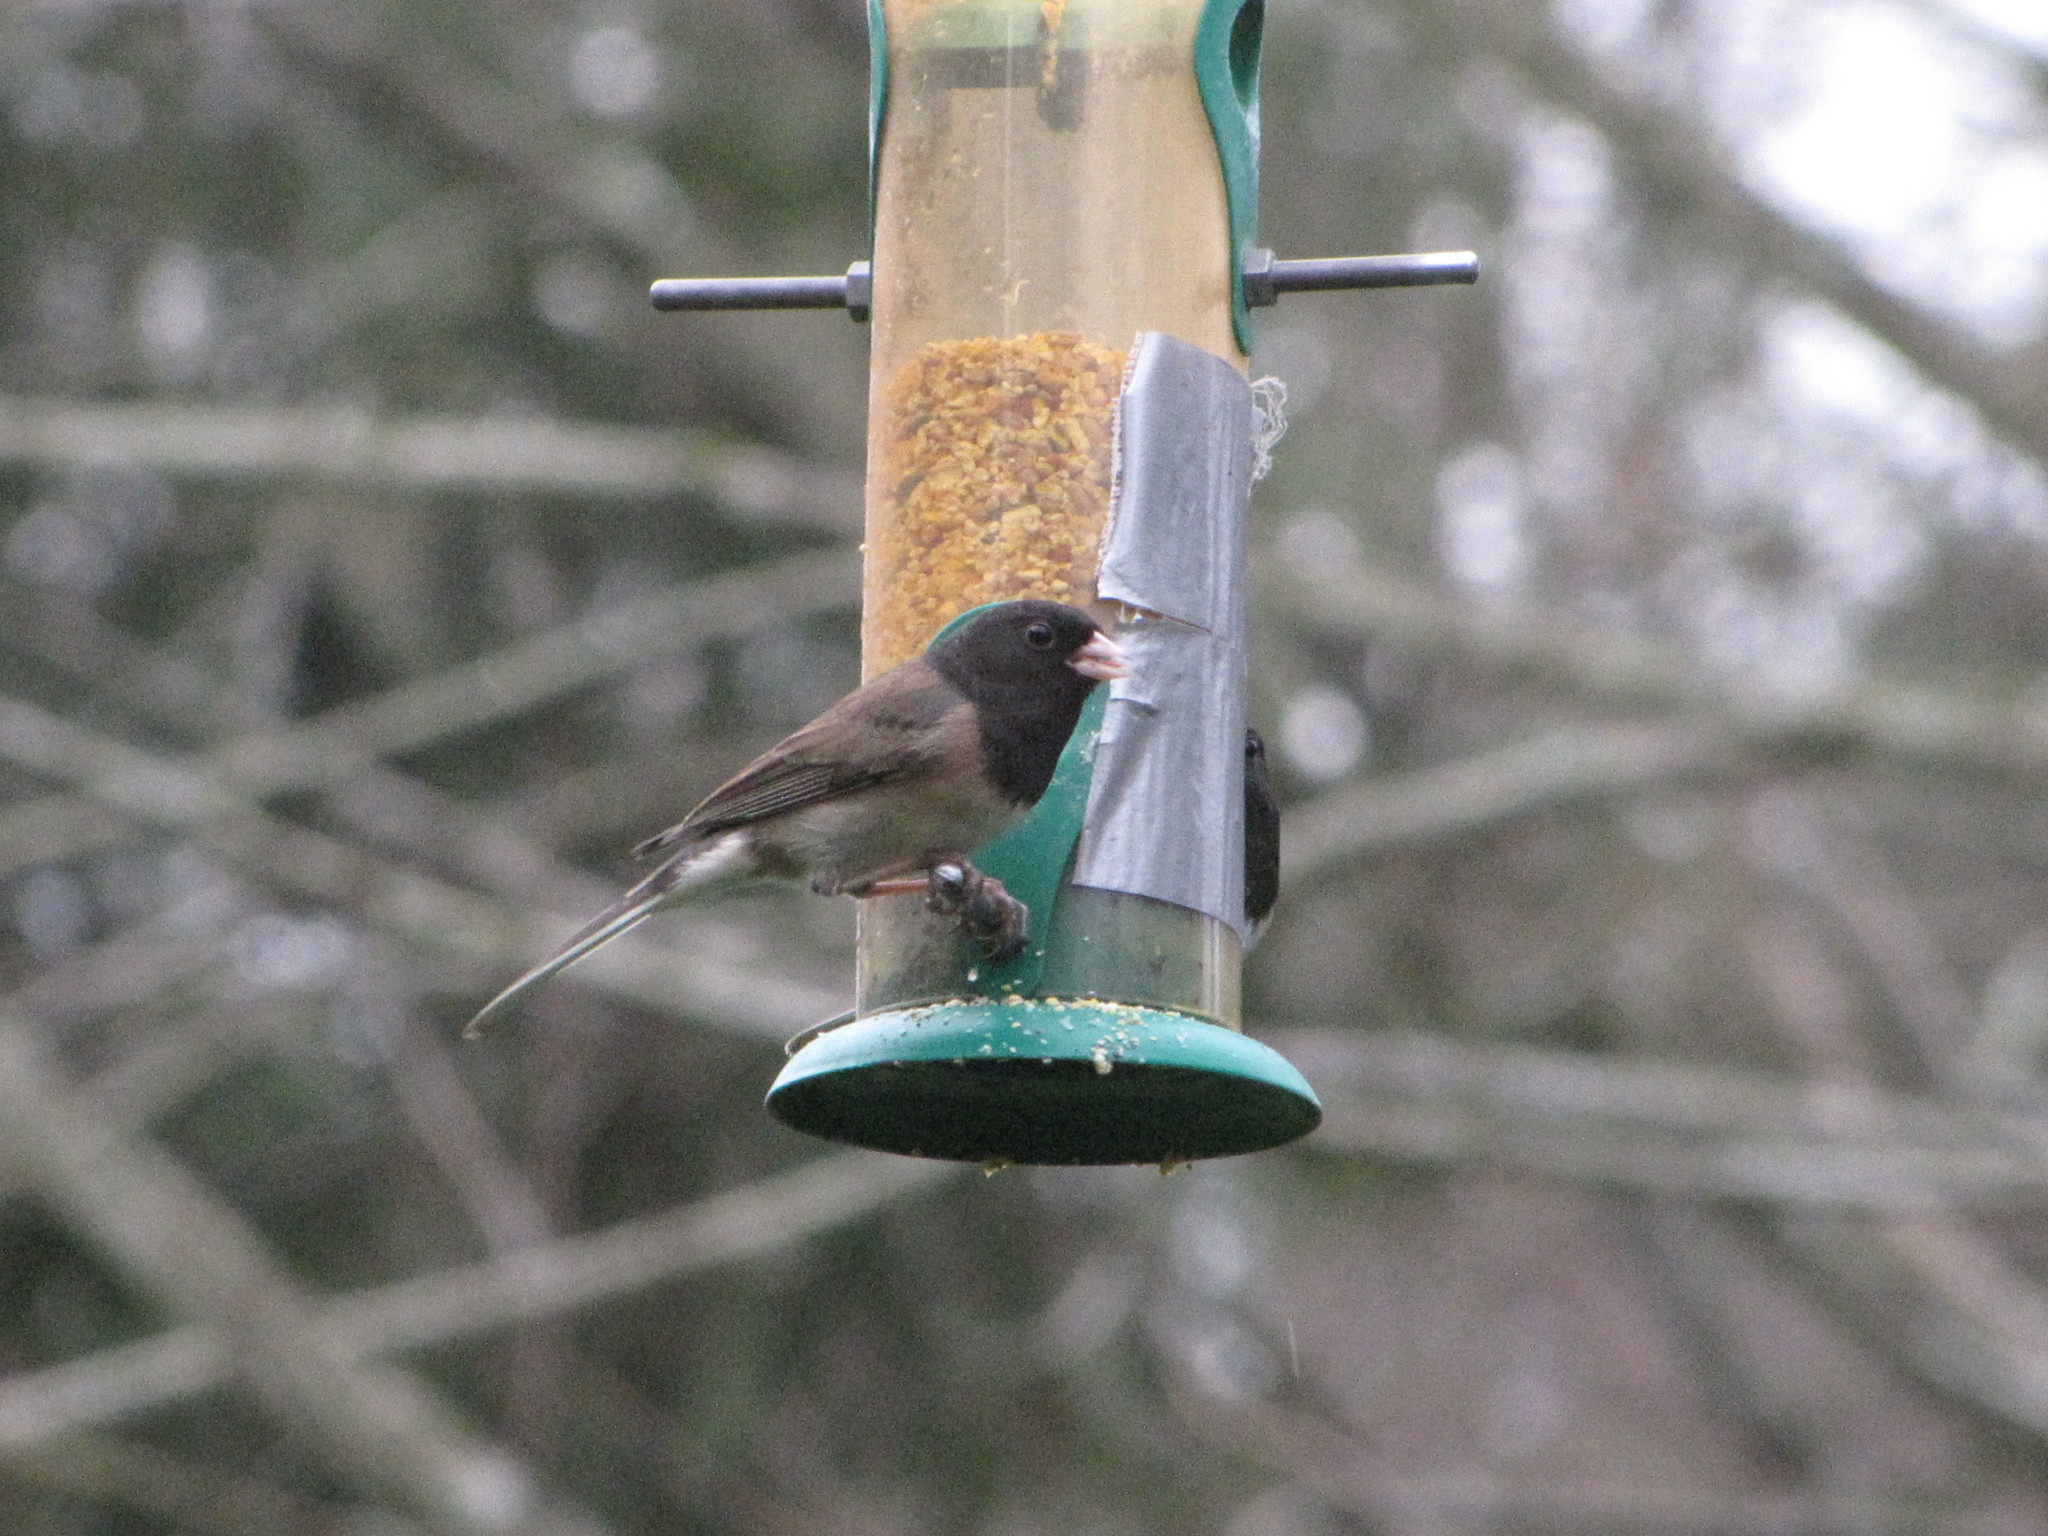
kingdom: Animalia
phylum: Chordata
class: Aves
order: Passeriformes
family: Passerellidae
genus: Junco
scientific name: Junco hyemalis
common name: Dark-eyed junco
